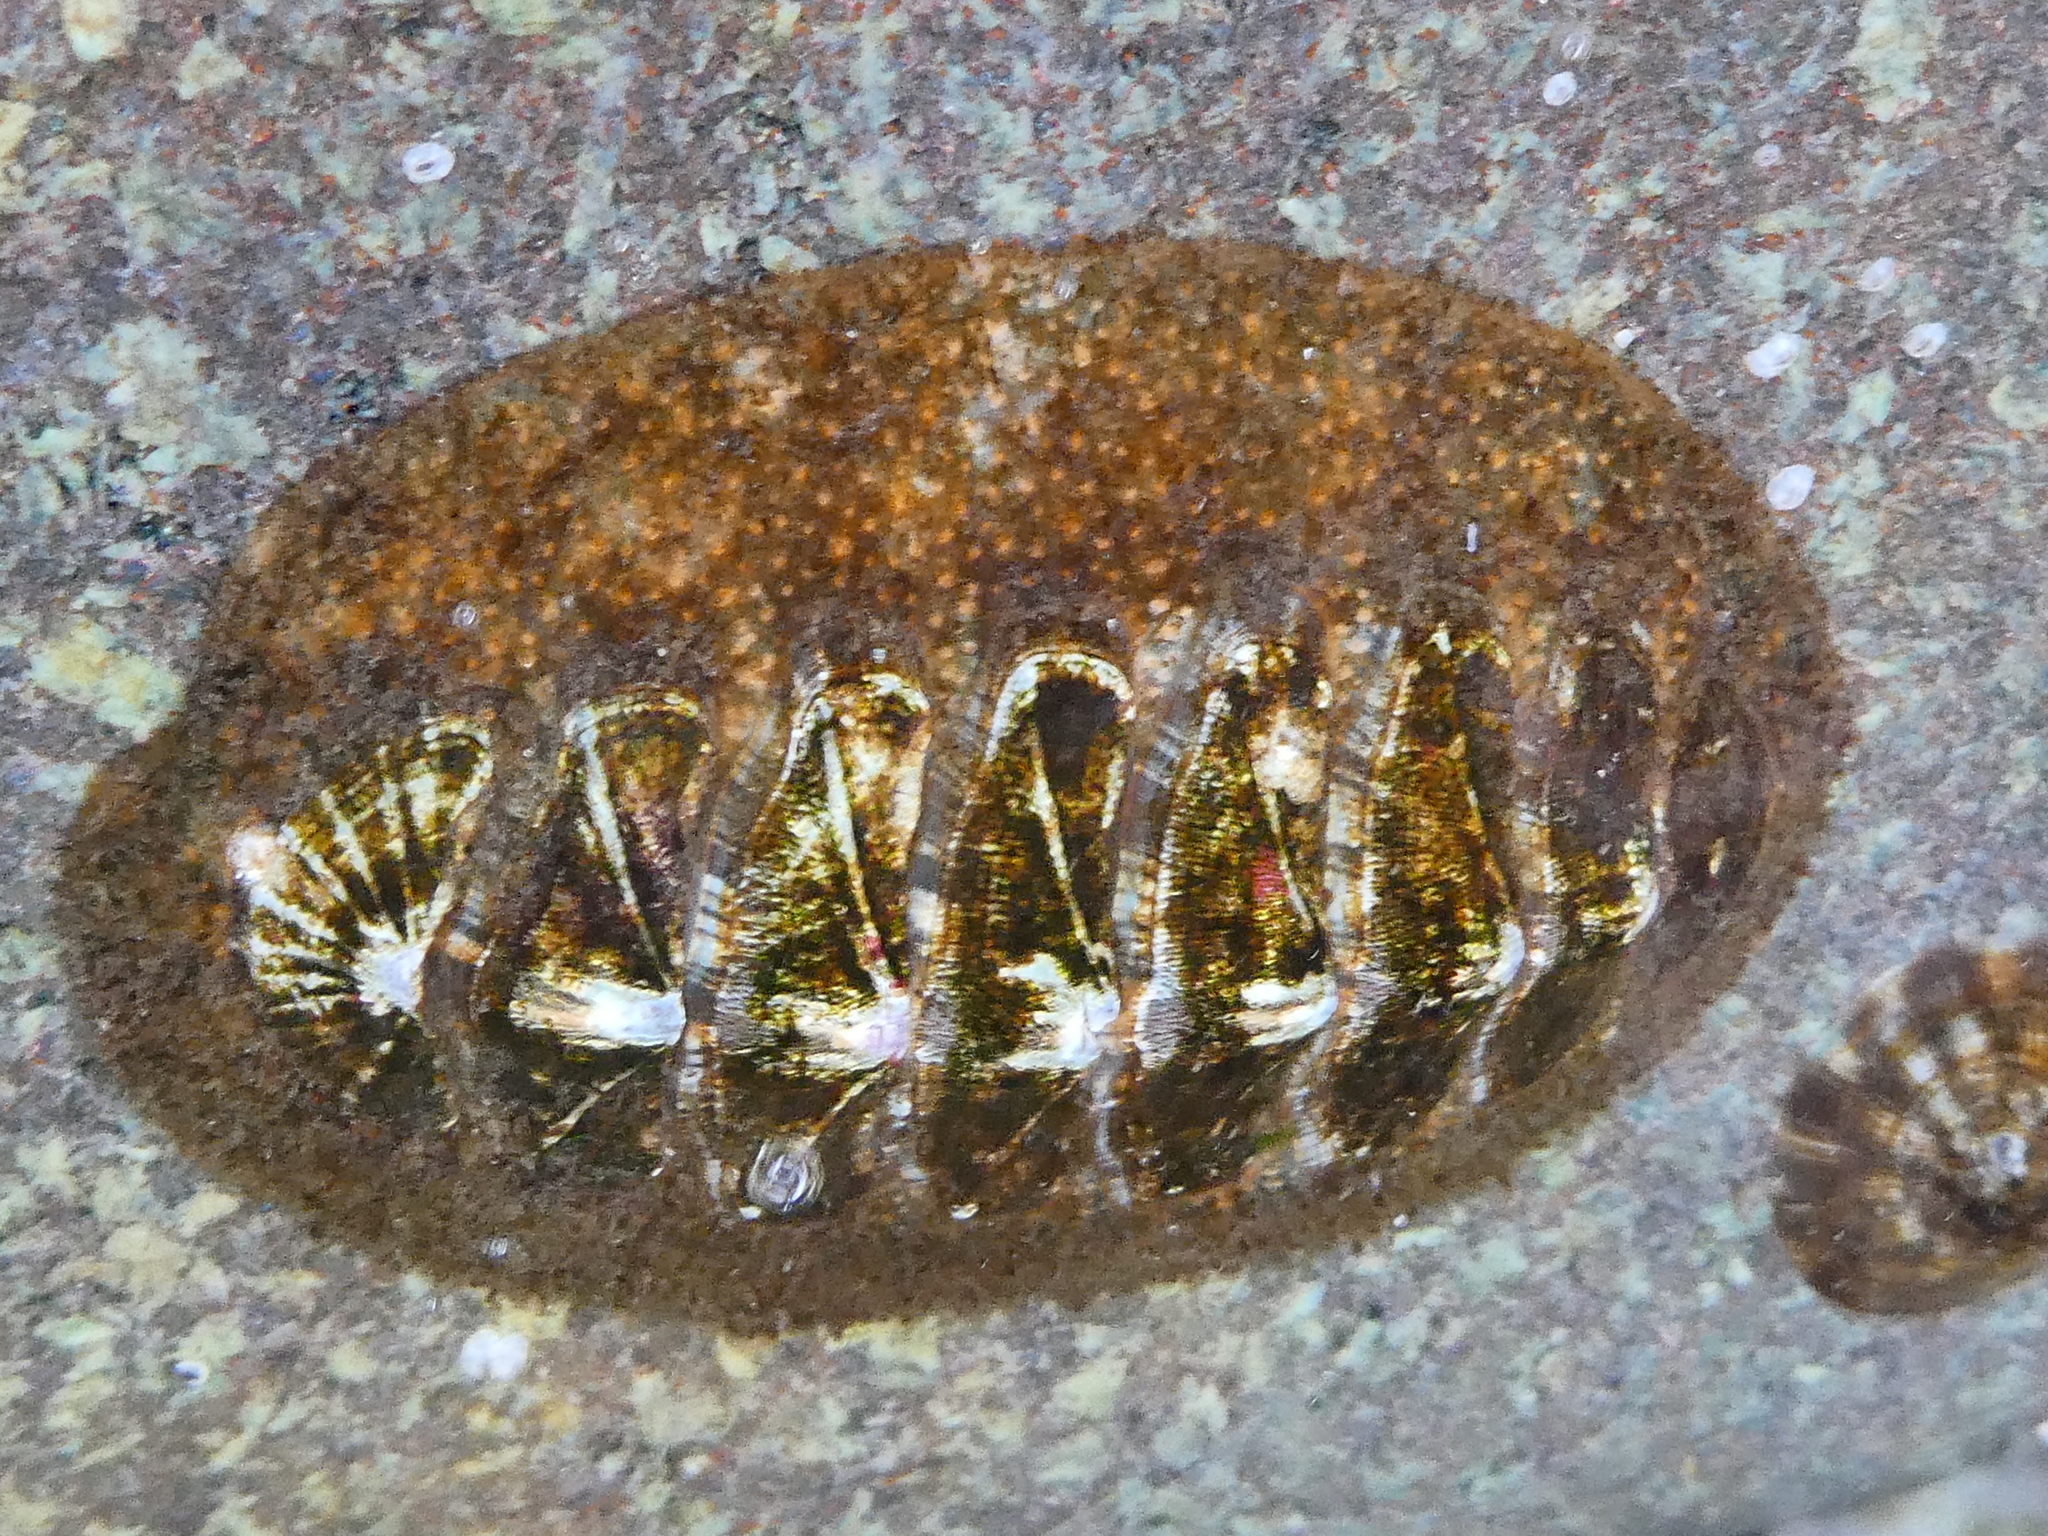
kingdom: Animalia
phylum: Mollusca
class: Polyplacophora
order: Chitonida
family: Mopaliidae
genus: Mopalia
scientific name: Mopalia lignosa
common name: Woody chiton
